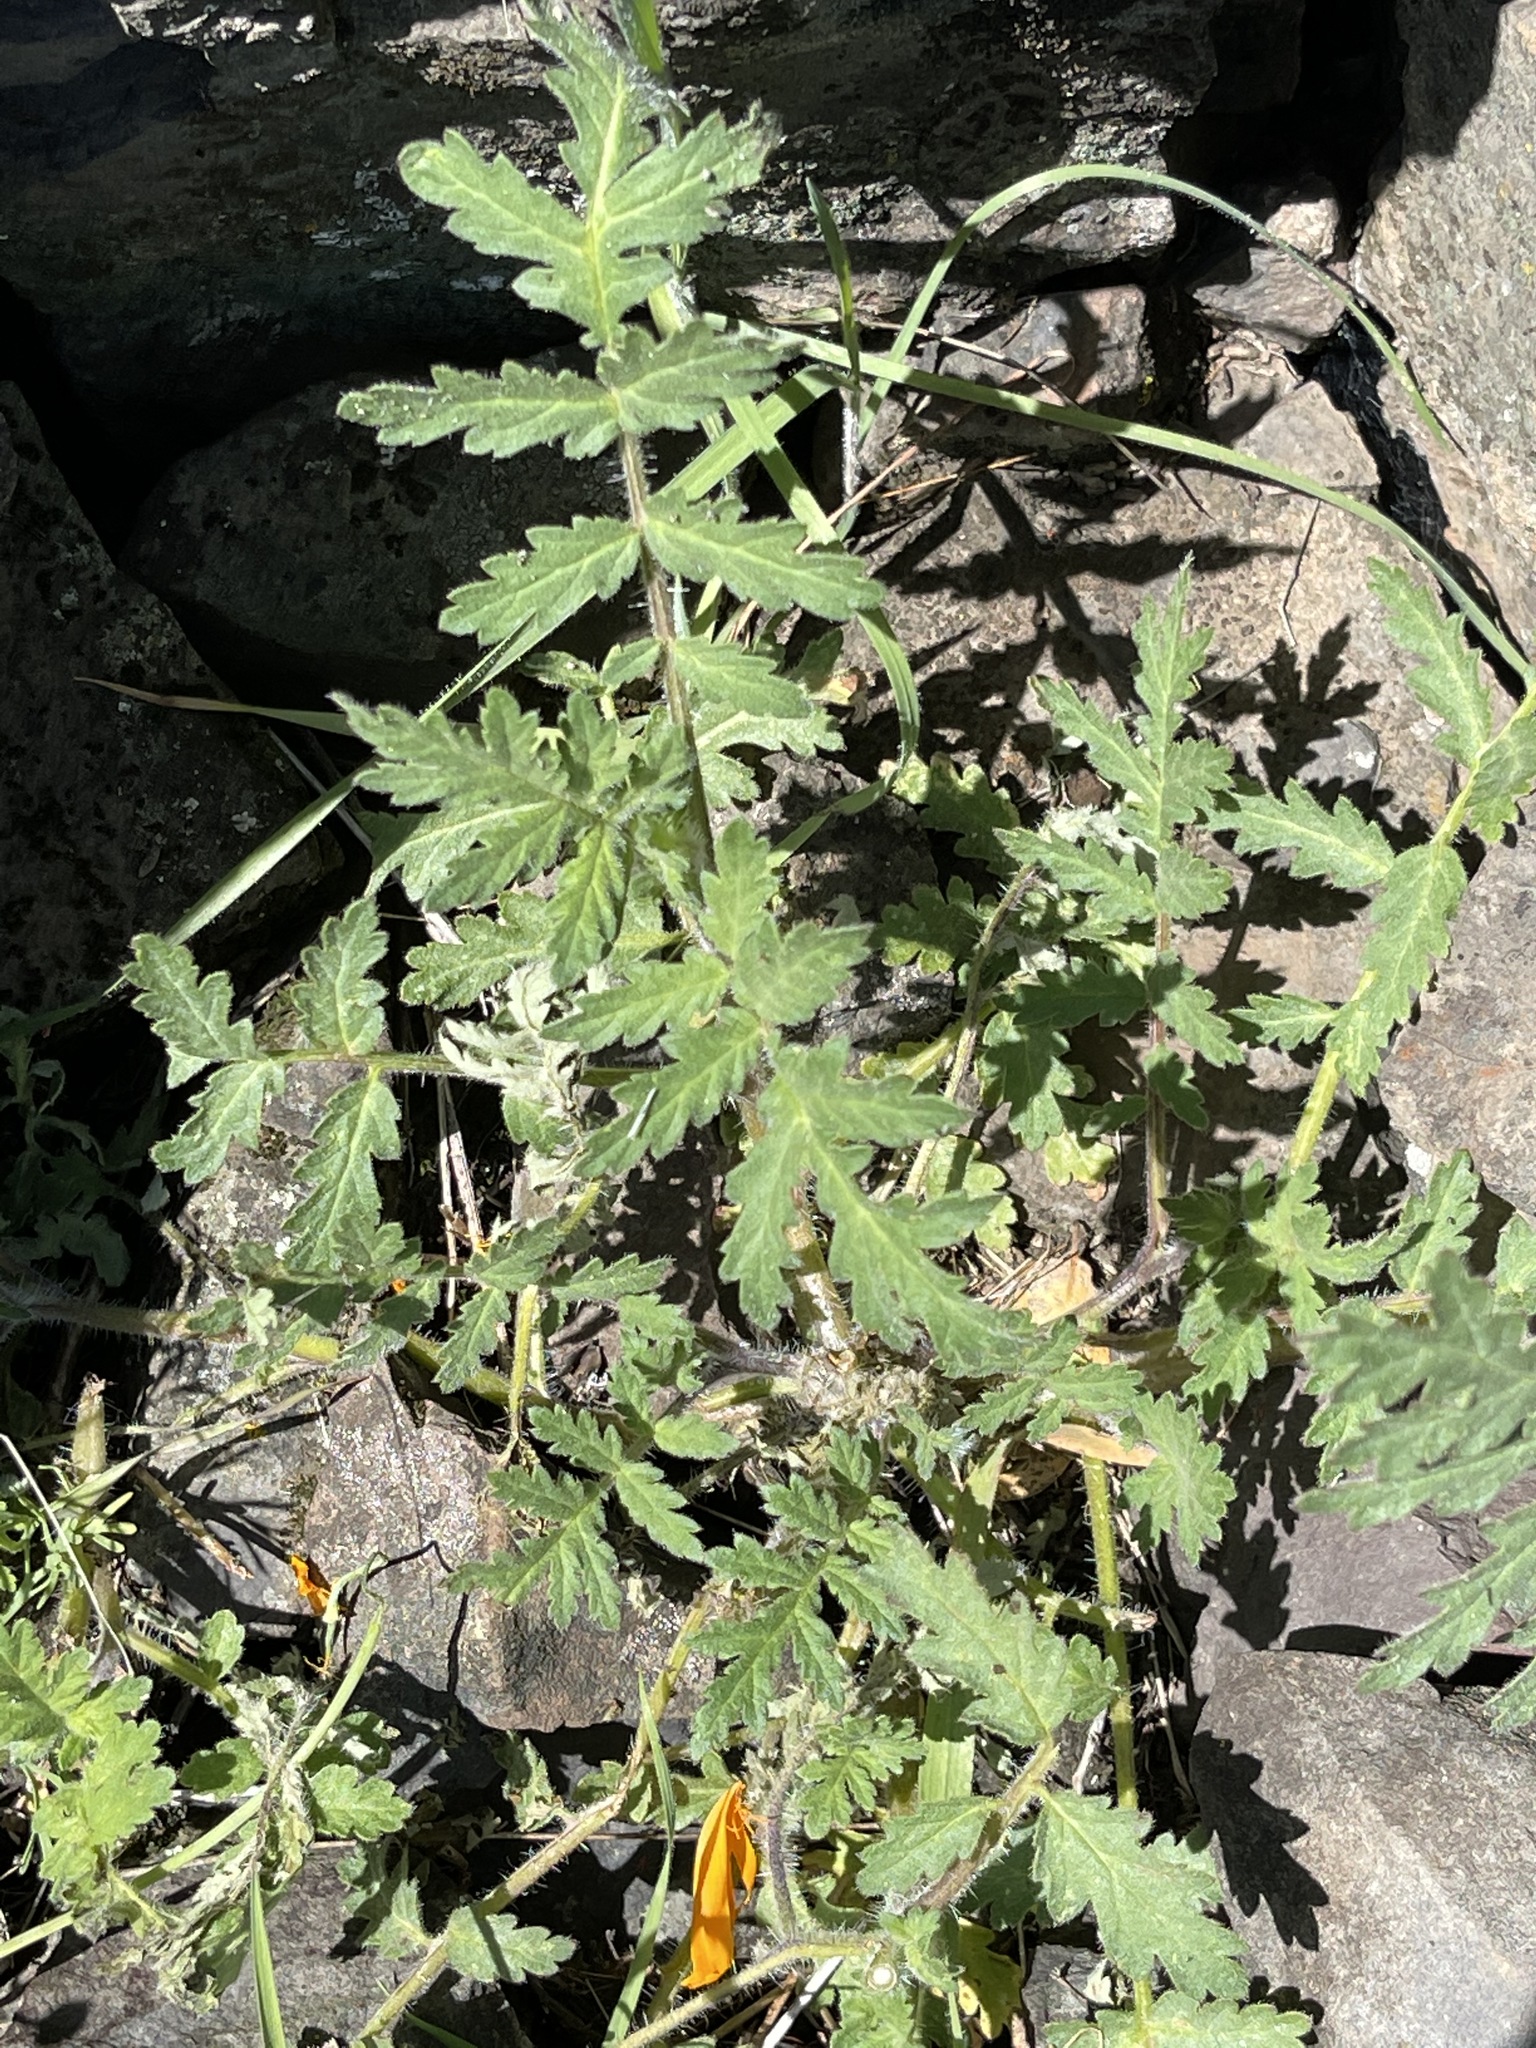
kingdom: Plantae
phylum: Tracheophyta
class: Magnoliopsida
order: Boraginales
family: Hydrophyllaceae
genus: Phacelia
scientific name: Phacelia cicutaria
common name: Caterpillar phacelia
